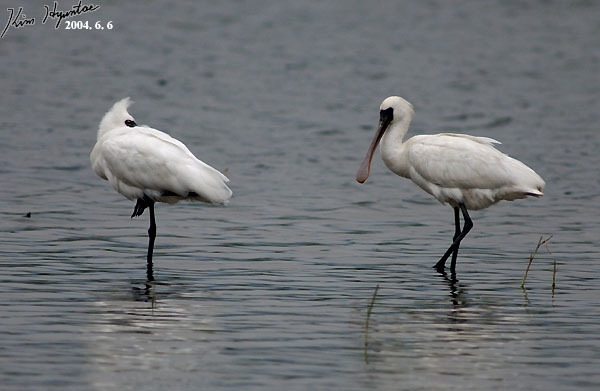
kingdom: Animalia
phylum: Chordata
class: Aves
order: Pelecaniformes
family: Threskiornithidae
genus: Platalea
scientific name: Platalea minor
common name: Black-faced spoonbill
